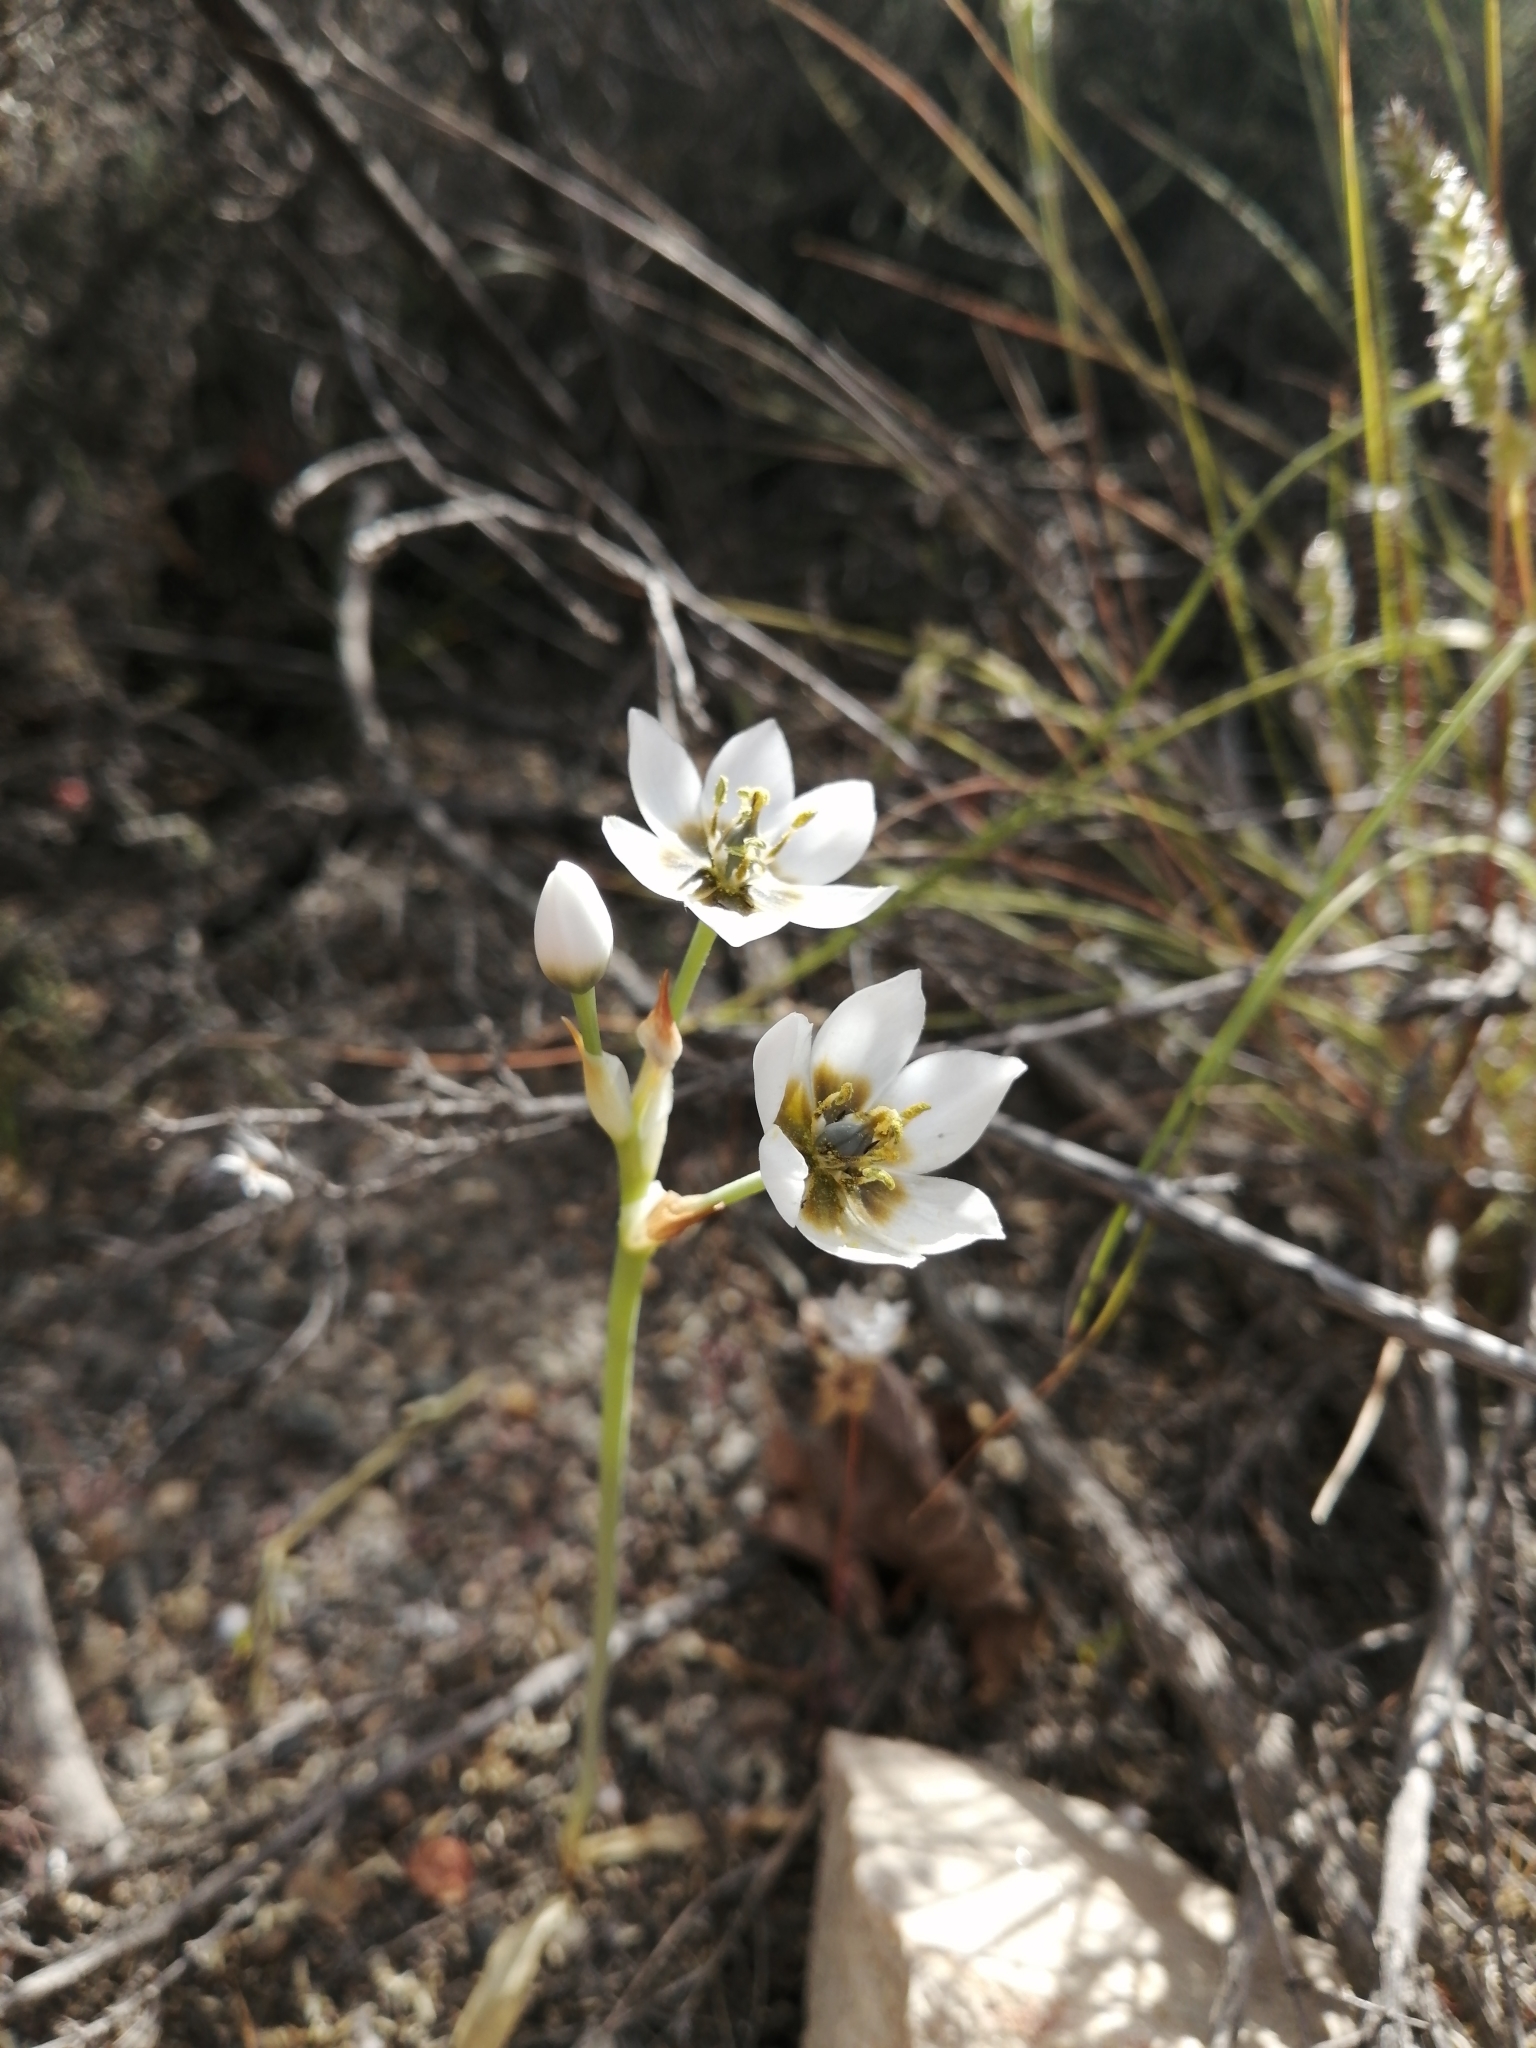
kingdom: Plantae
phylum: Tracheophyta
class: Liliopsida
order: Asparagales
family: Asparagaceae
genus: Ornithogalum
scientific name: Ornithogalum thyrsoides
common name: Chincherinchee
